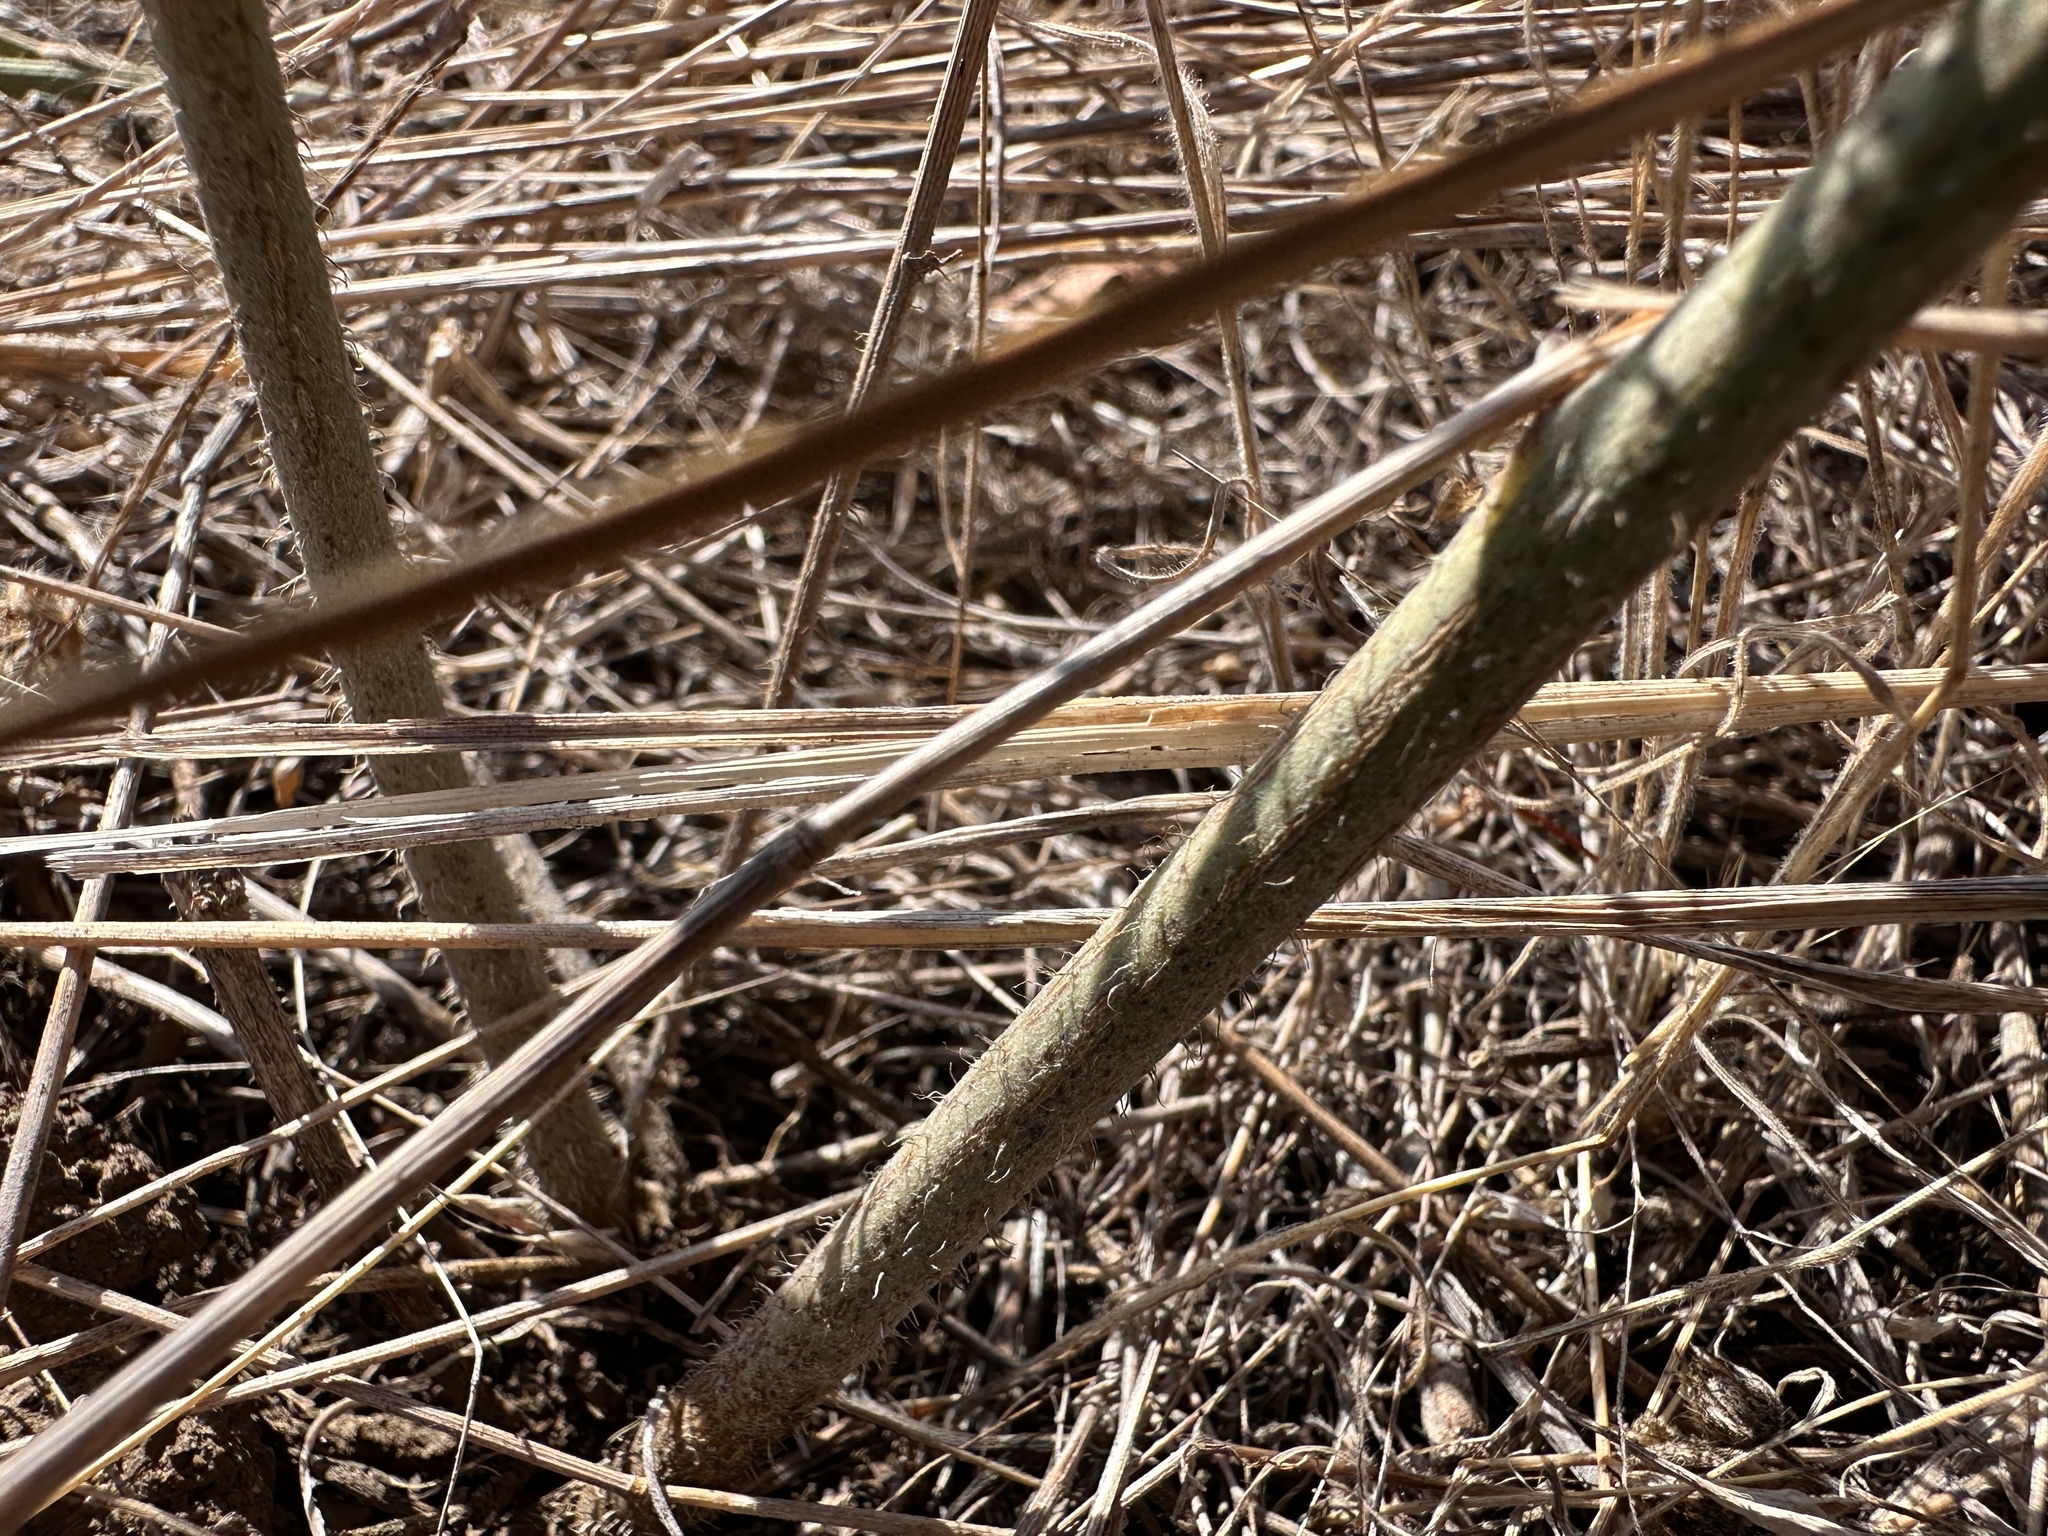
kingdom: Plantae
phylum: Tracheophyta
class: Magnoliopsida
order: Asterales
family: Asteraceae
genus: Chondrilla
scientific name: Chondrilla juncea
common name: Skeleton weed
